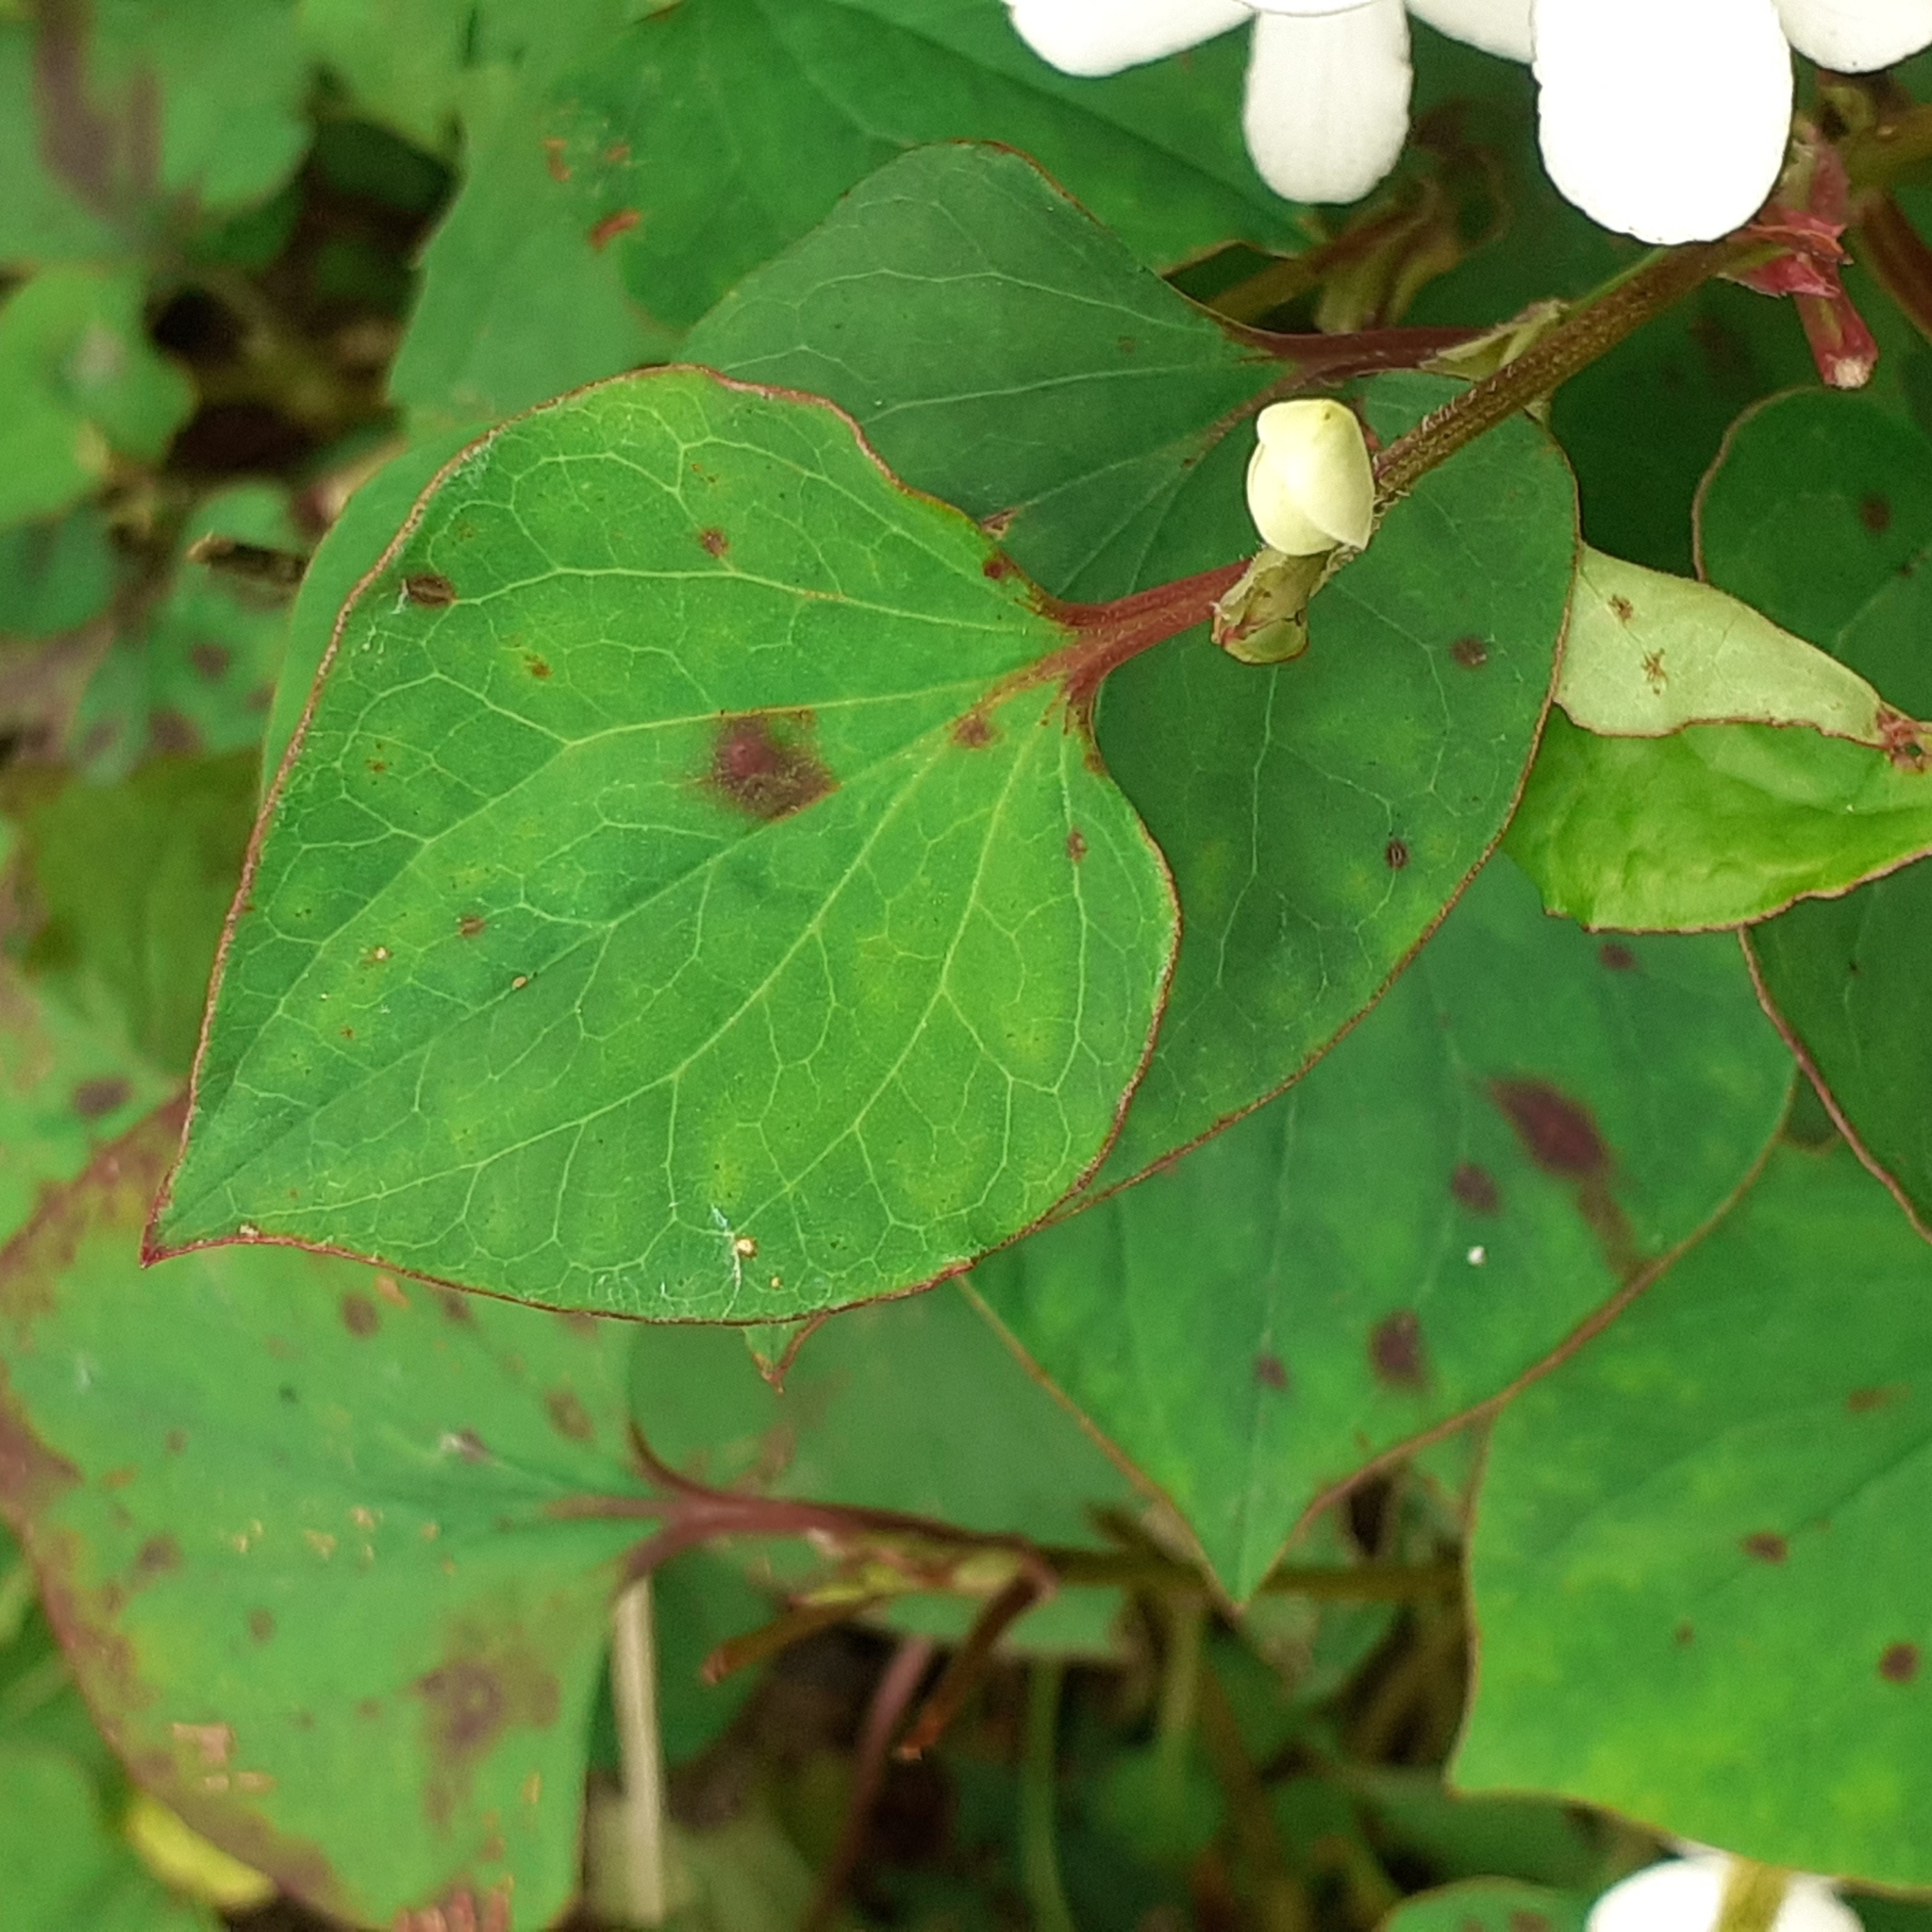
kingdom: Plantae
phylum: Tracheophyta
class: Magnoliopsida
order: Piperales
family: Saururaceae
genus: Houttuynia
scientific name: Houttuynia cordata
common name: Chameleon
